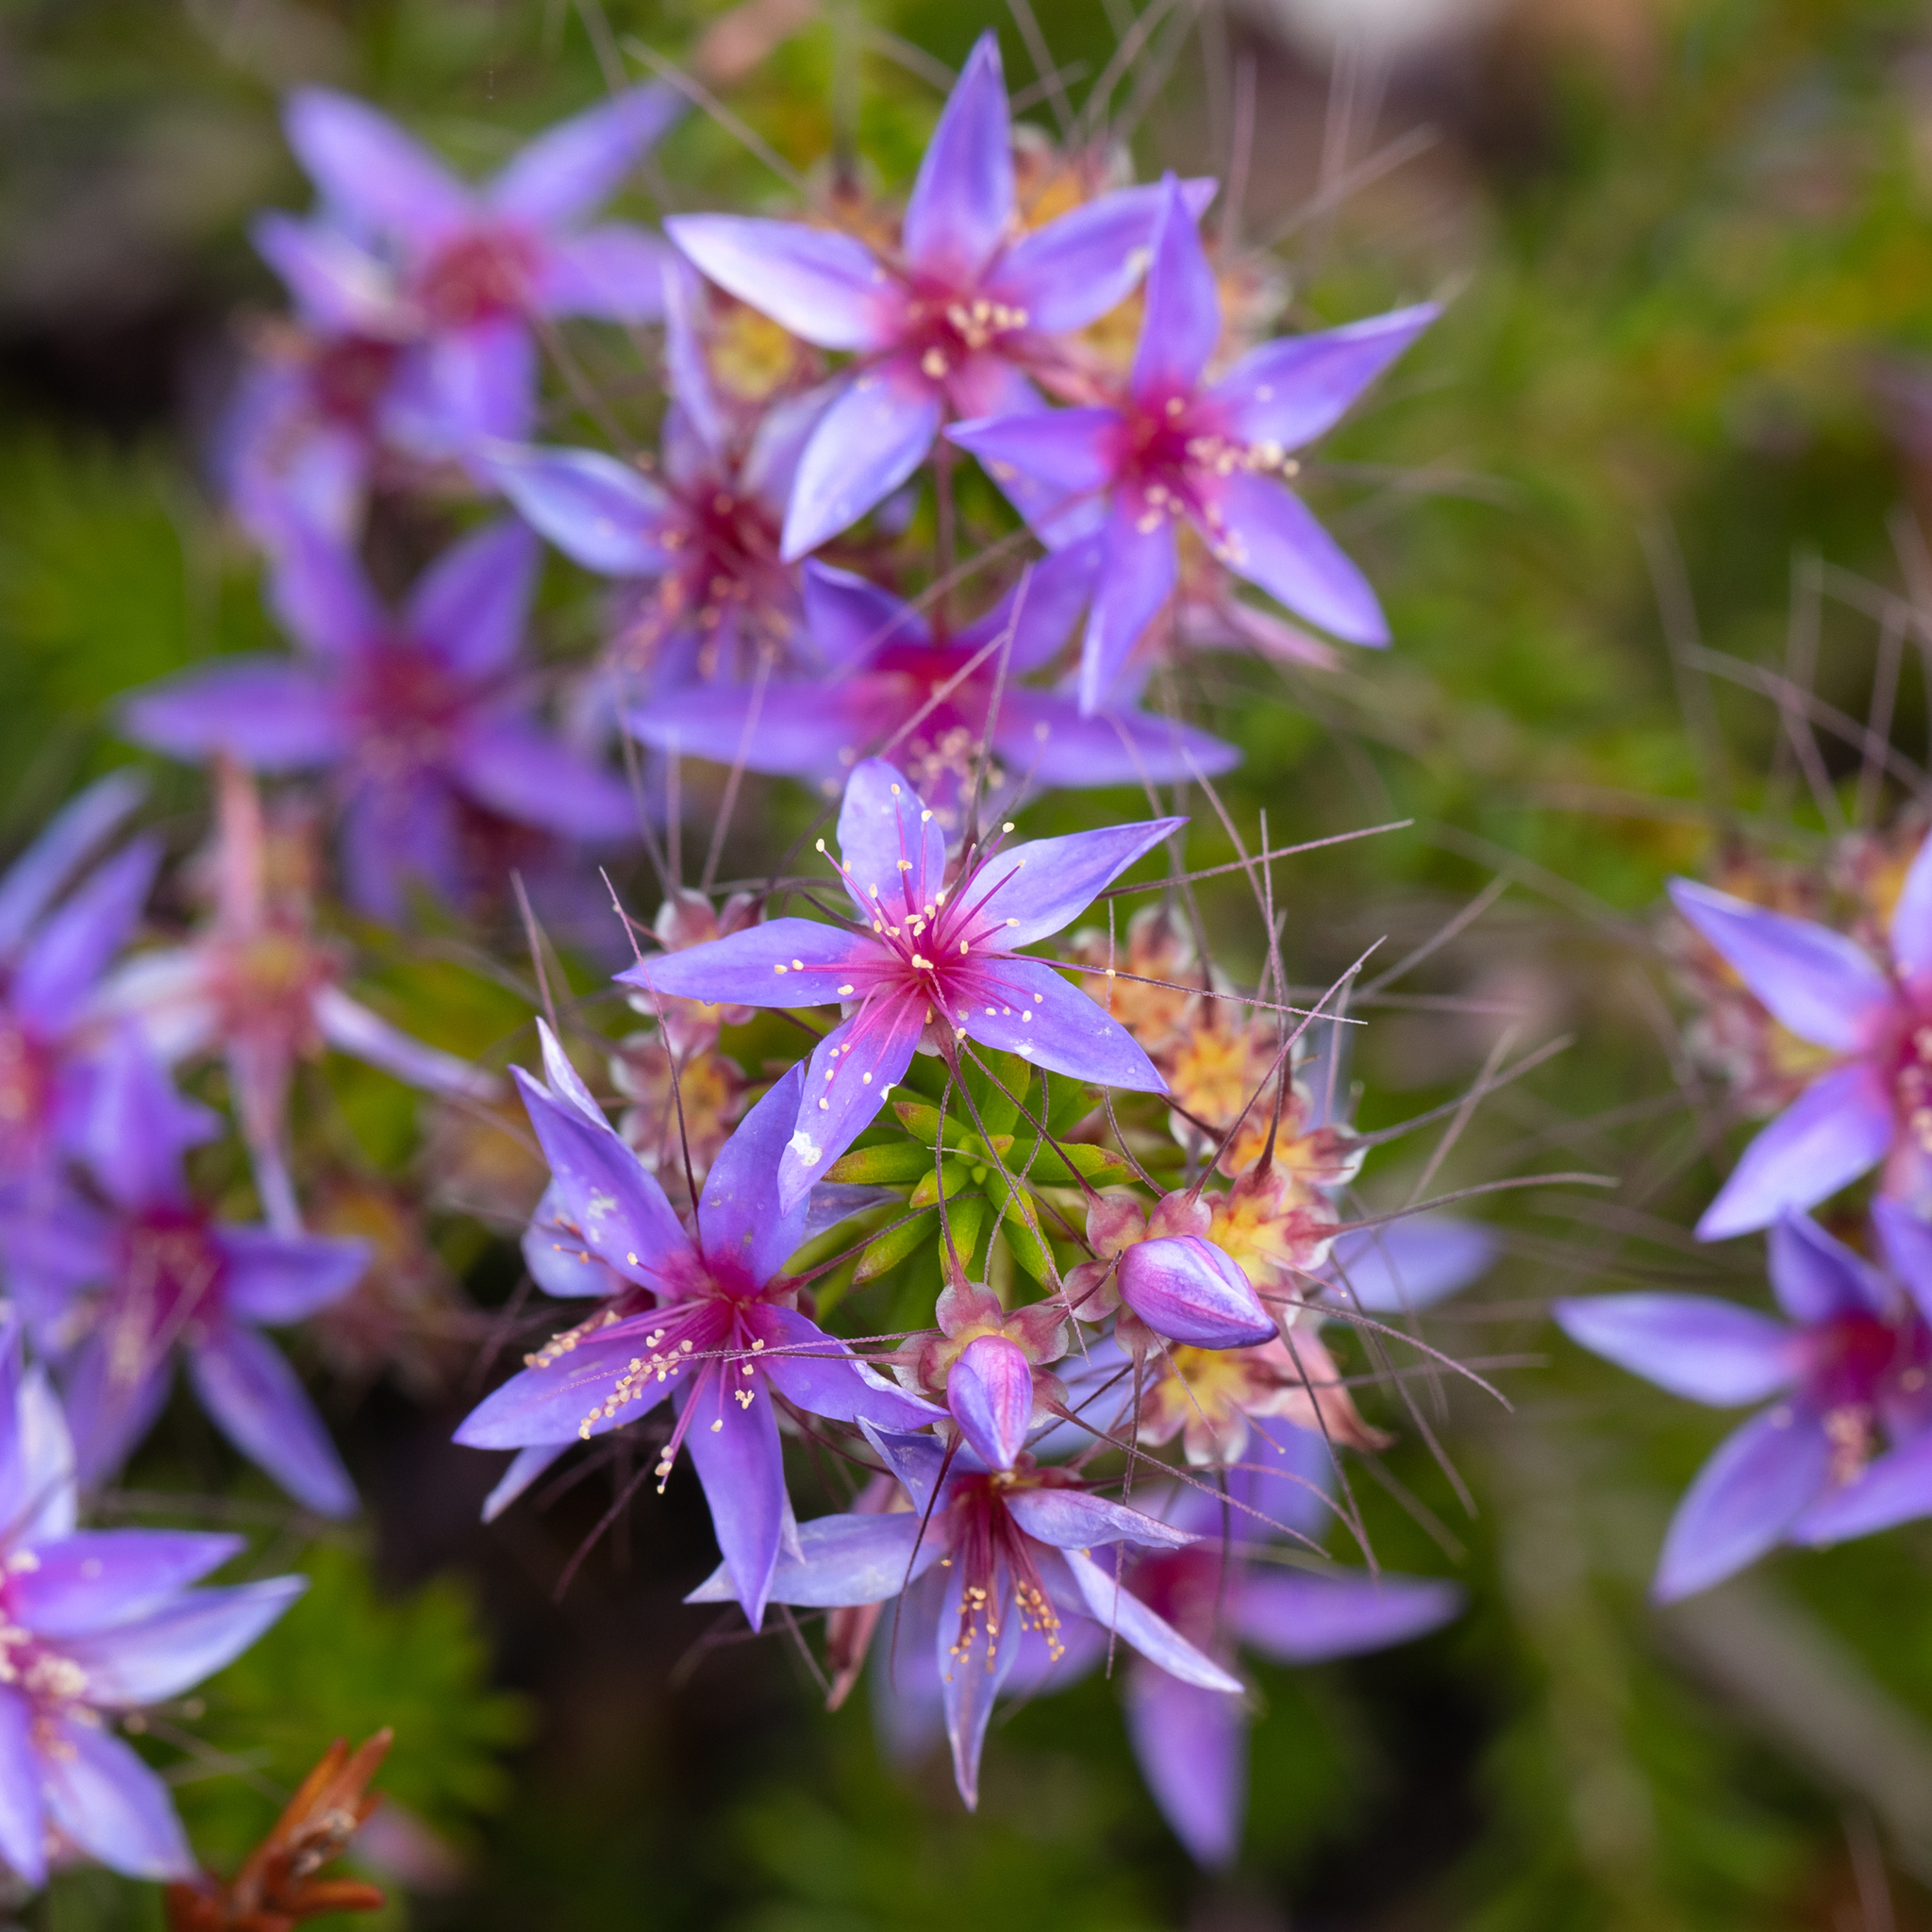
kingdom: Plantae
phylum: Tracheophyta
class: Magnoliopsida
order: Myrtales
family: Myrtaceae
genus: Calytrix
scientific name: Calytrix leschenaultii
